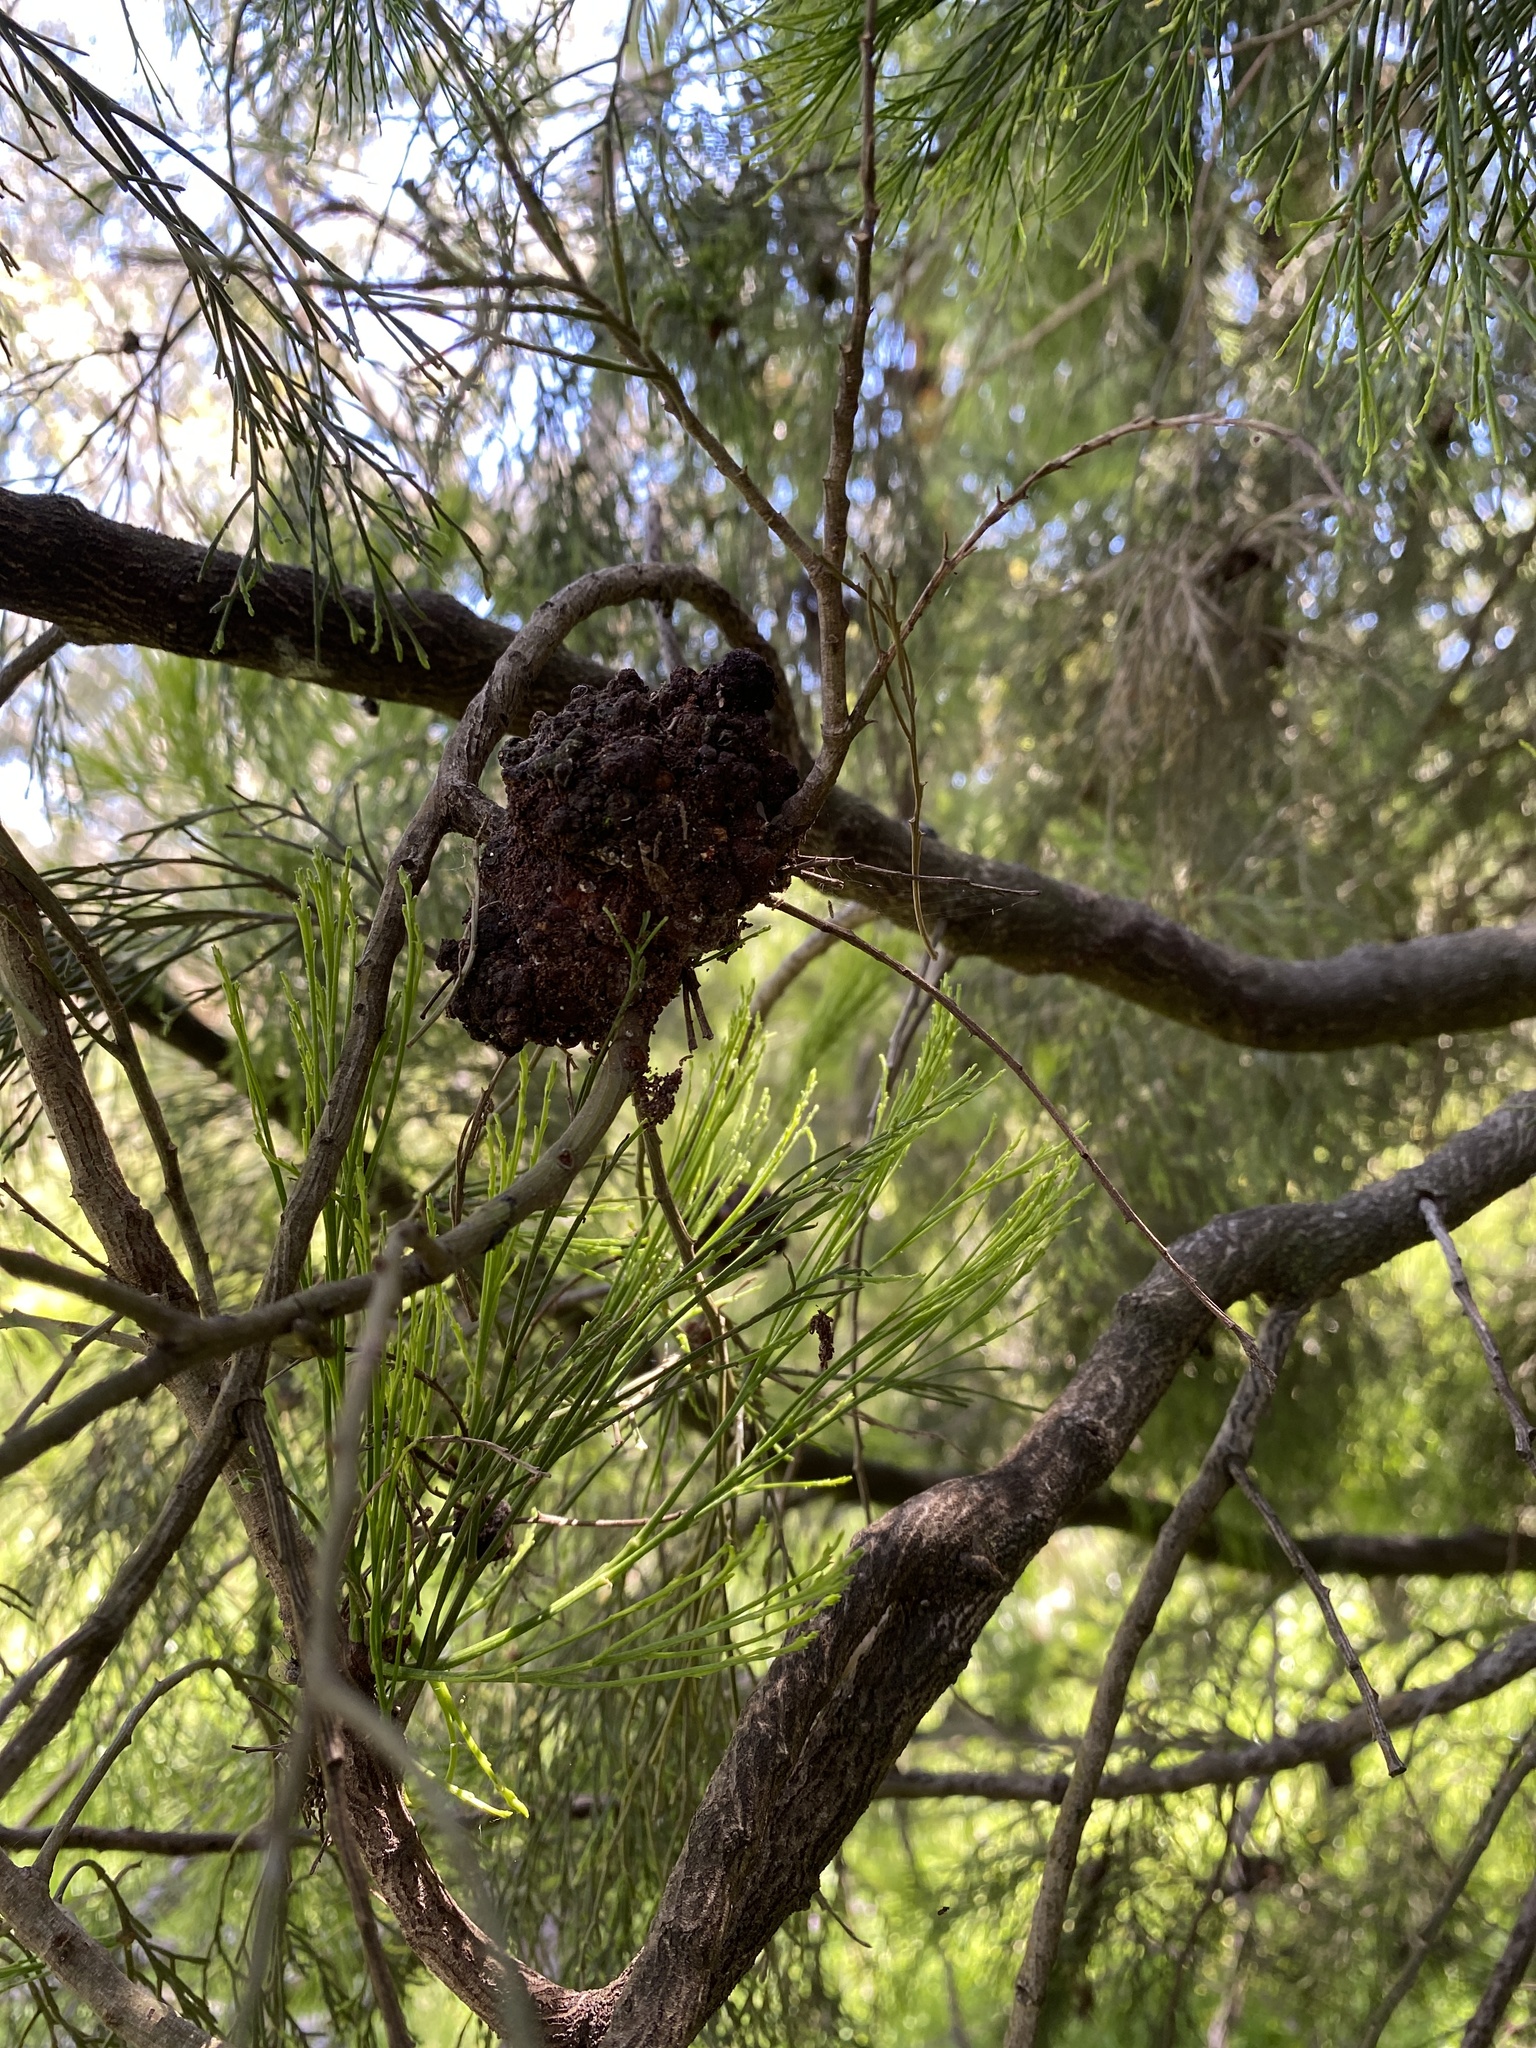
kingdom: Plantae
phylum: Tracheophyta
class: Magnoliopsida
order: Santalales
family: Santalaceae
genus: Exocarpos
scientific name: Exocarpos cupressiformis
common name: Cherry ballart
